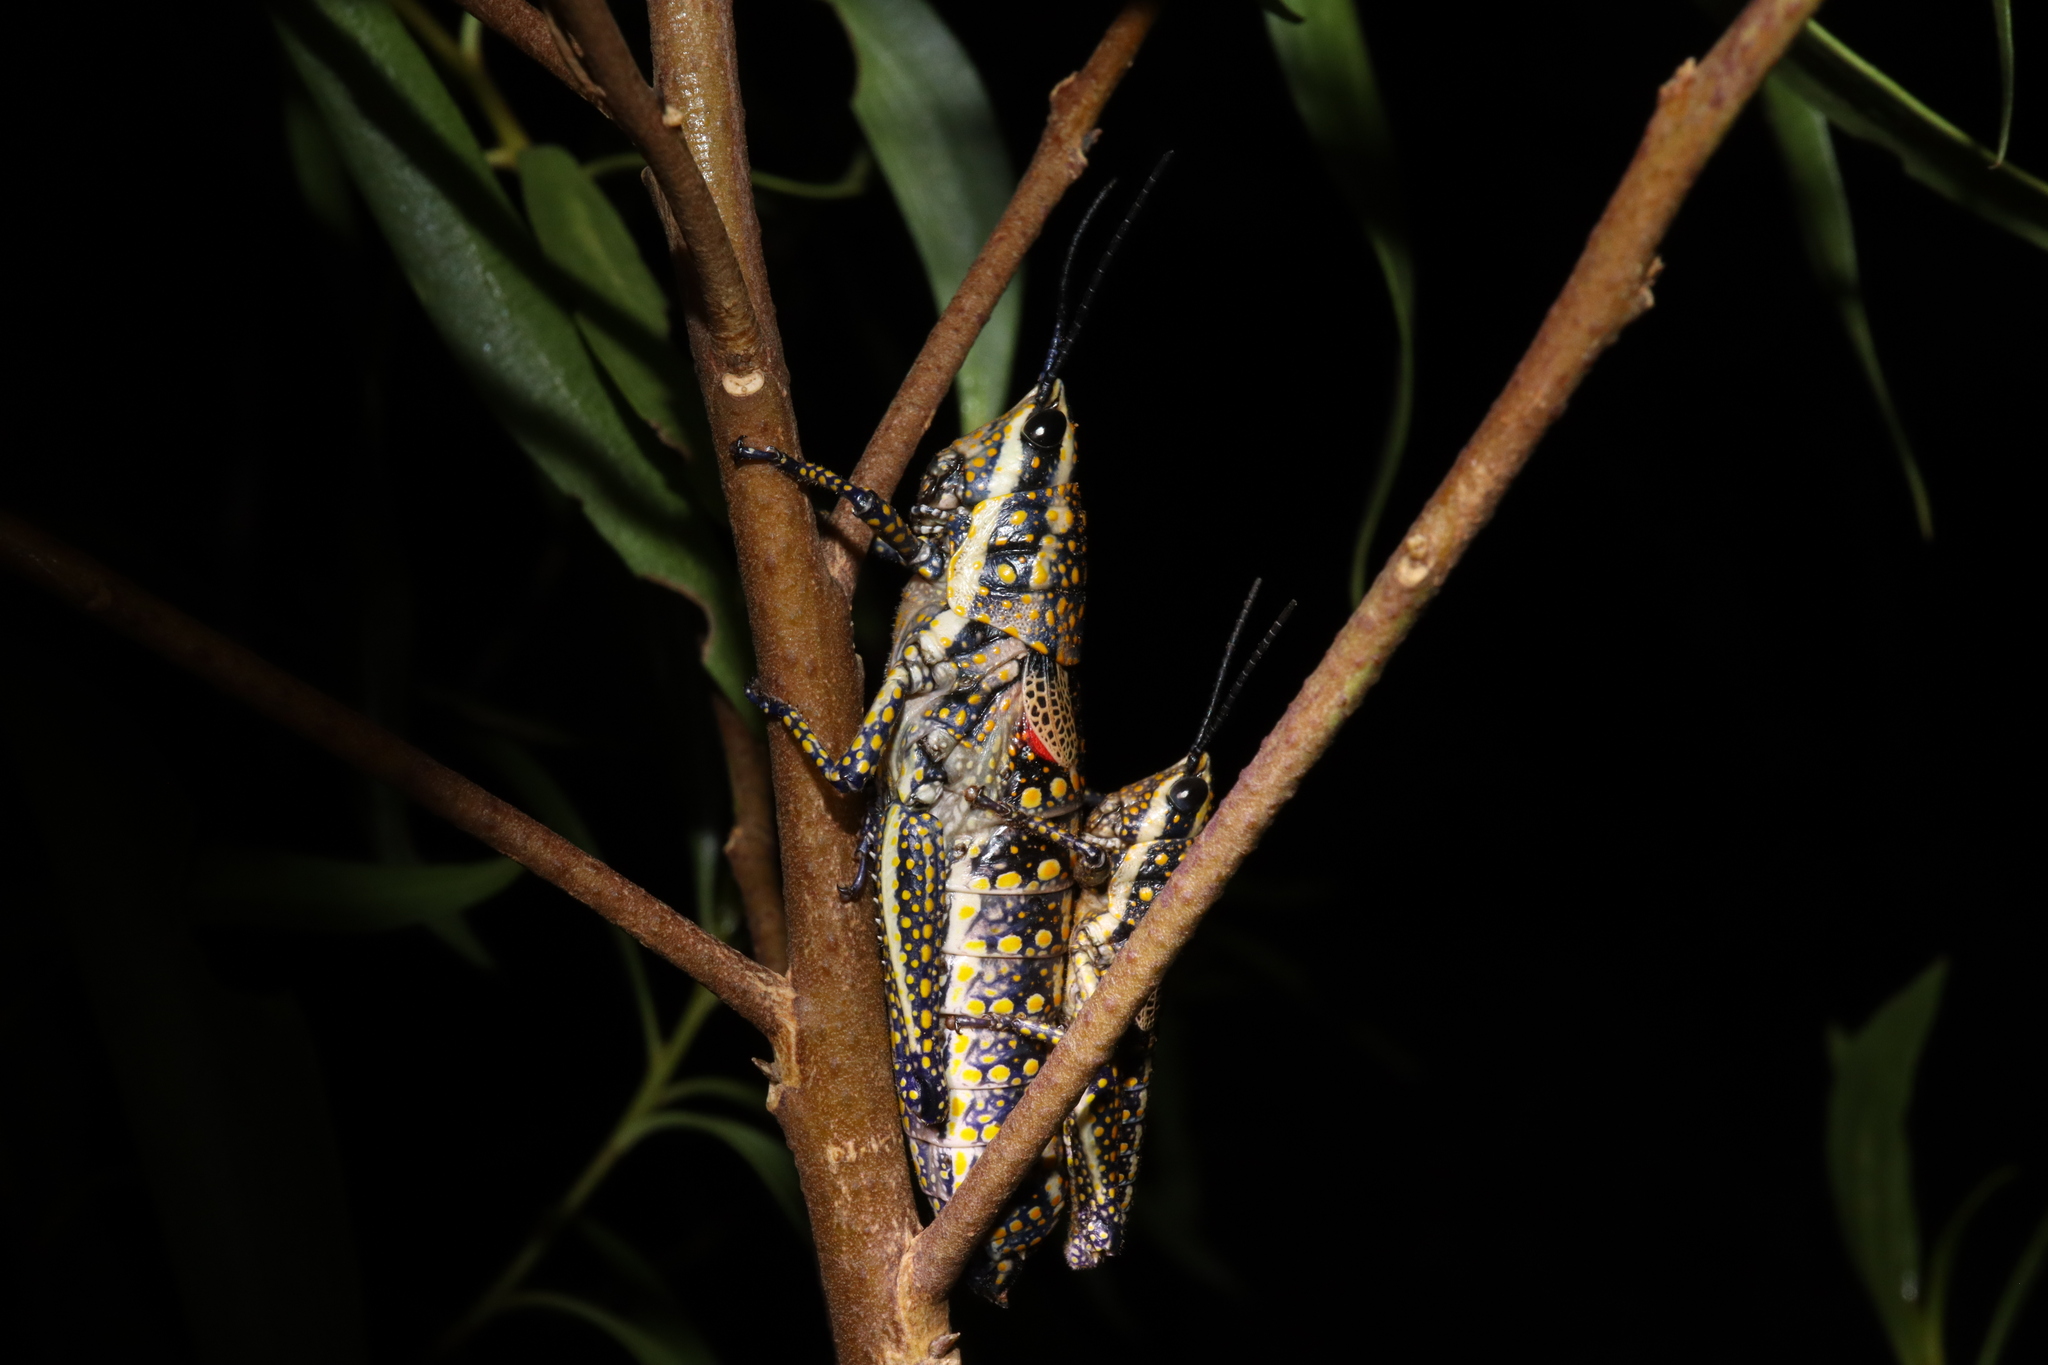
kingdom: Animalia
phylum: Arthropoda
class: Insecta
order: Orthoptera
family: Pyrgomorphidae
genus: Monistria
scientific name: Monistria pustulifera
